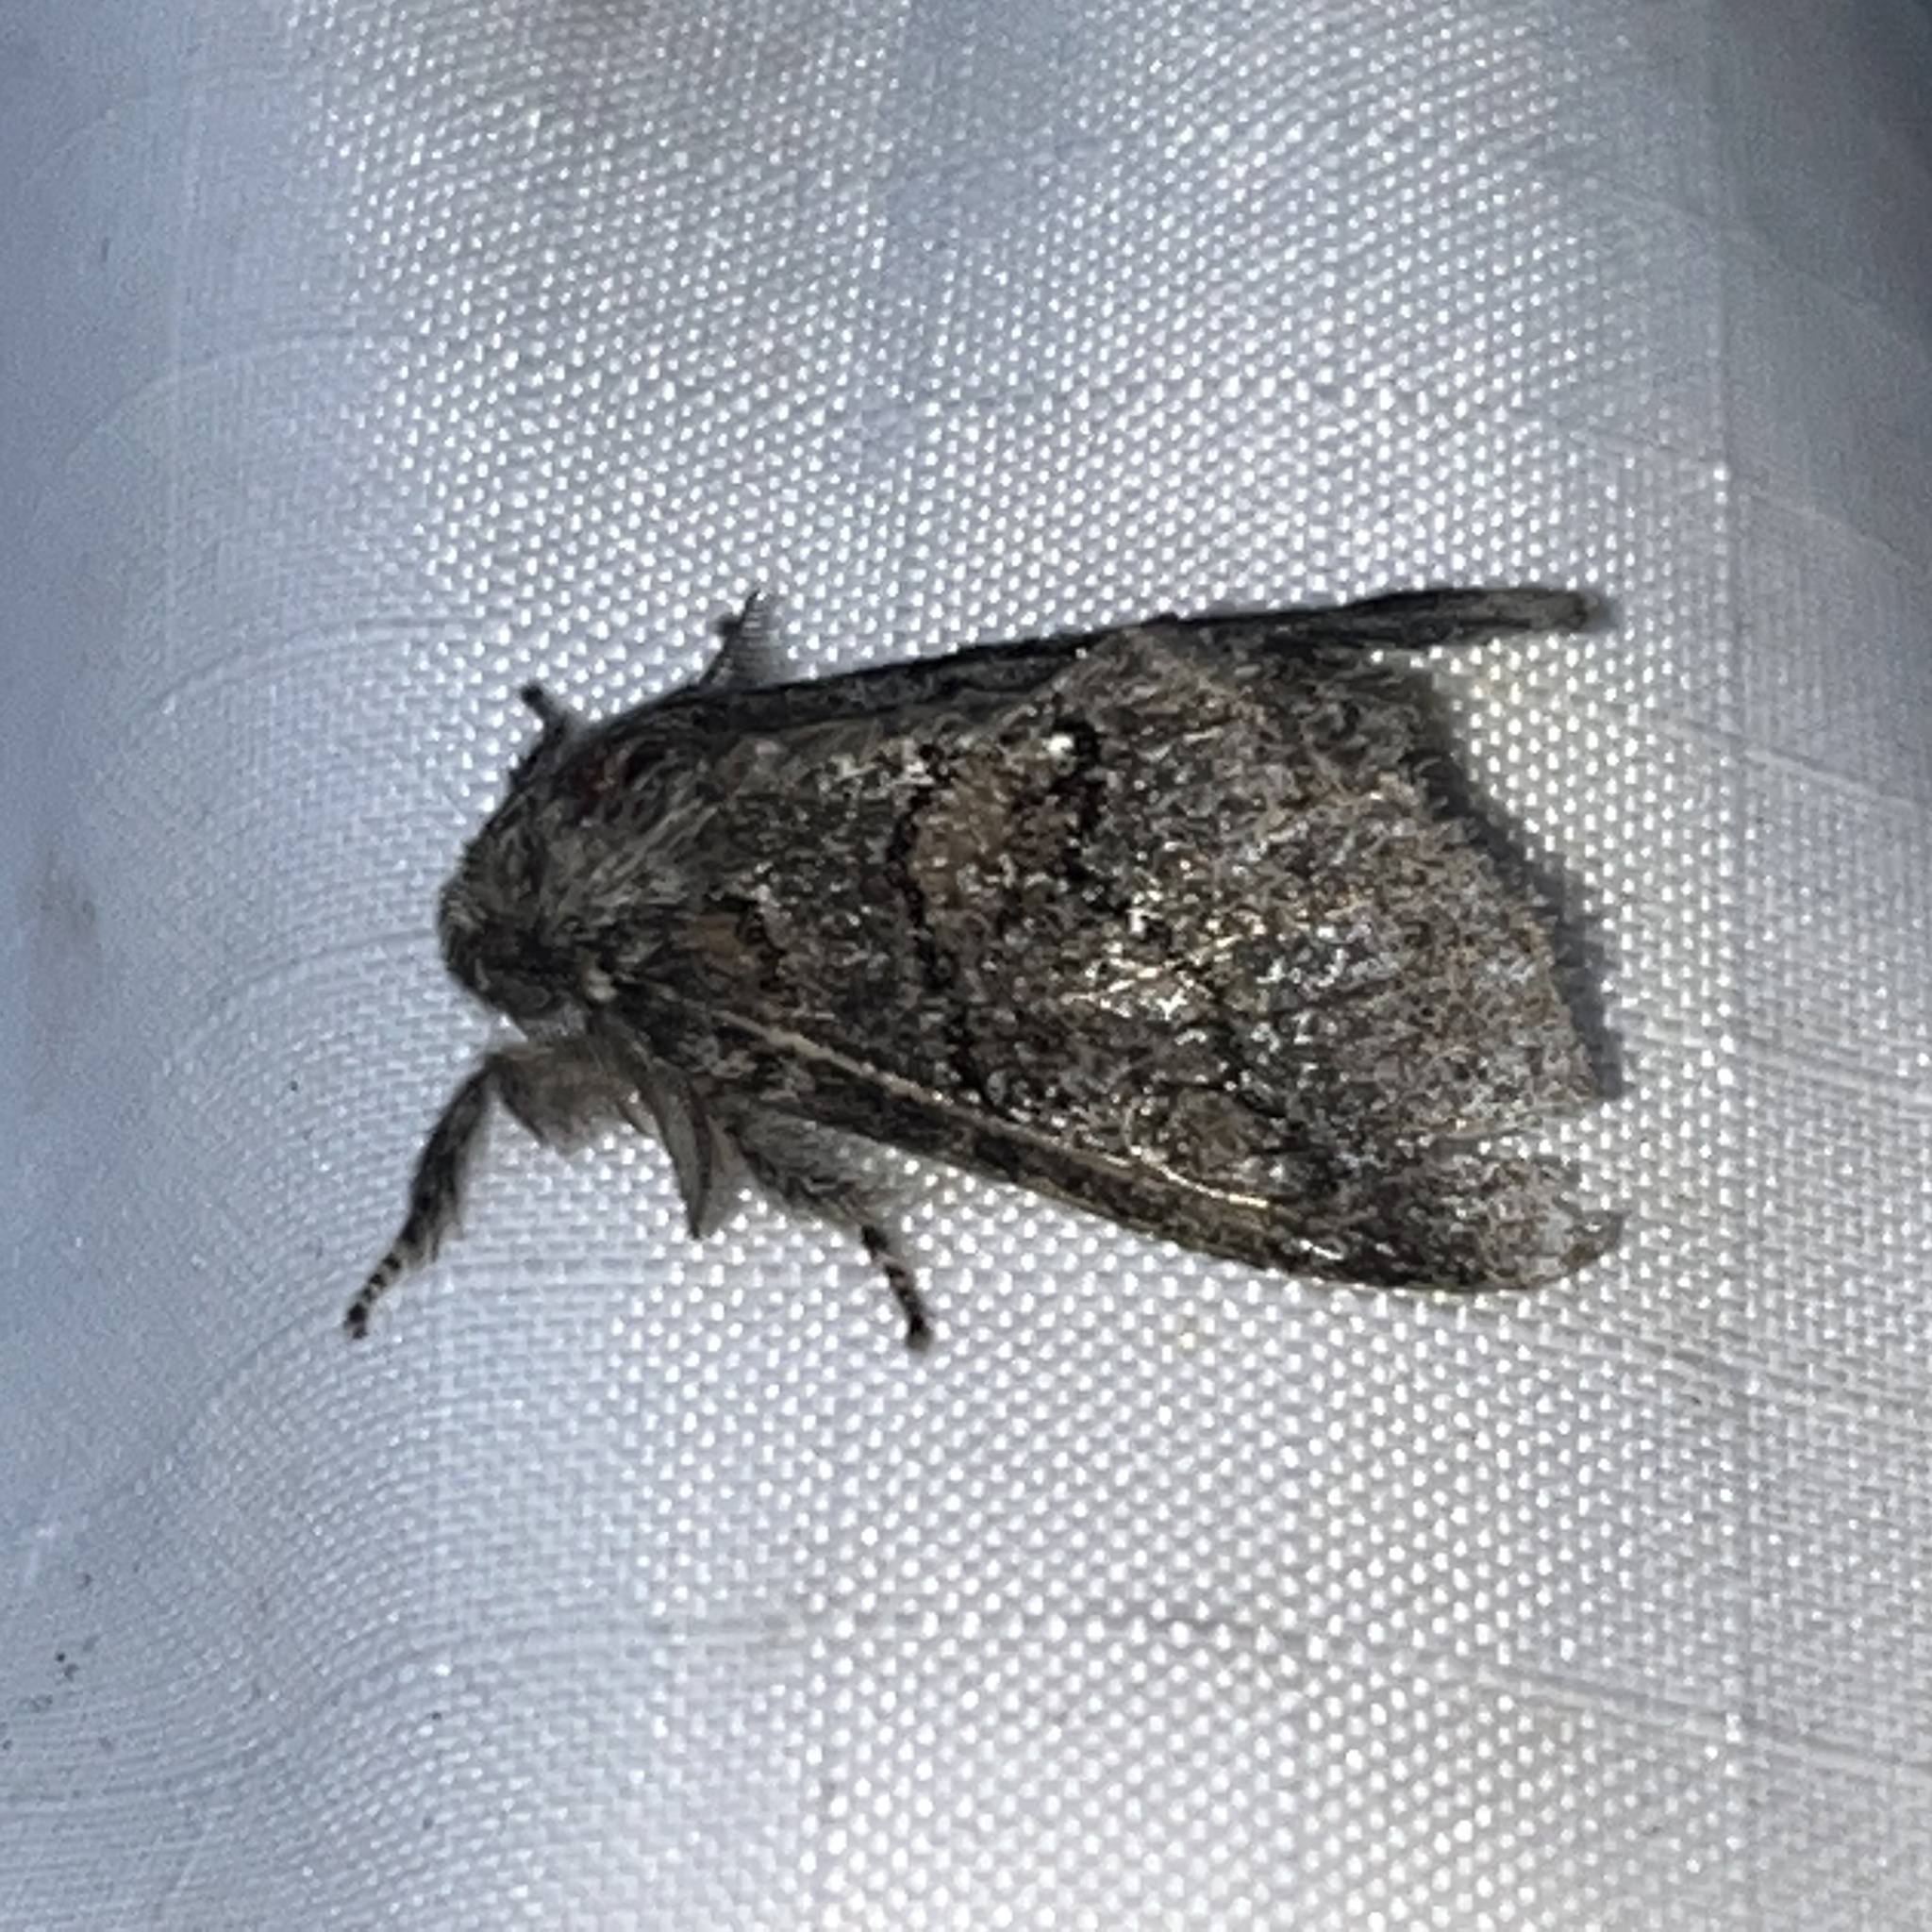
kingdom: Animalia
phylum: Arthropoda
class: Insecta
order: Lepidoptera
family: Notodontidae
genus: Gluphisia
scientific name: Gluphisia septentrionis
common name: Common gluphisia
